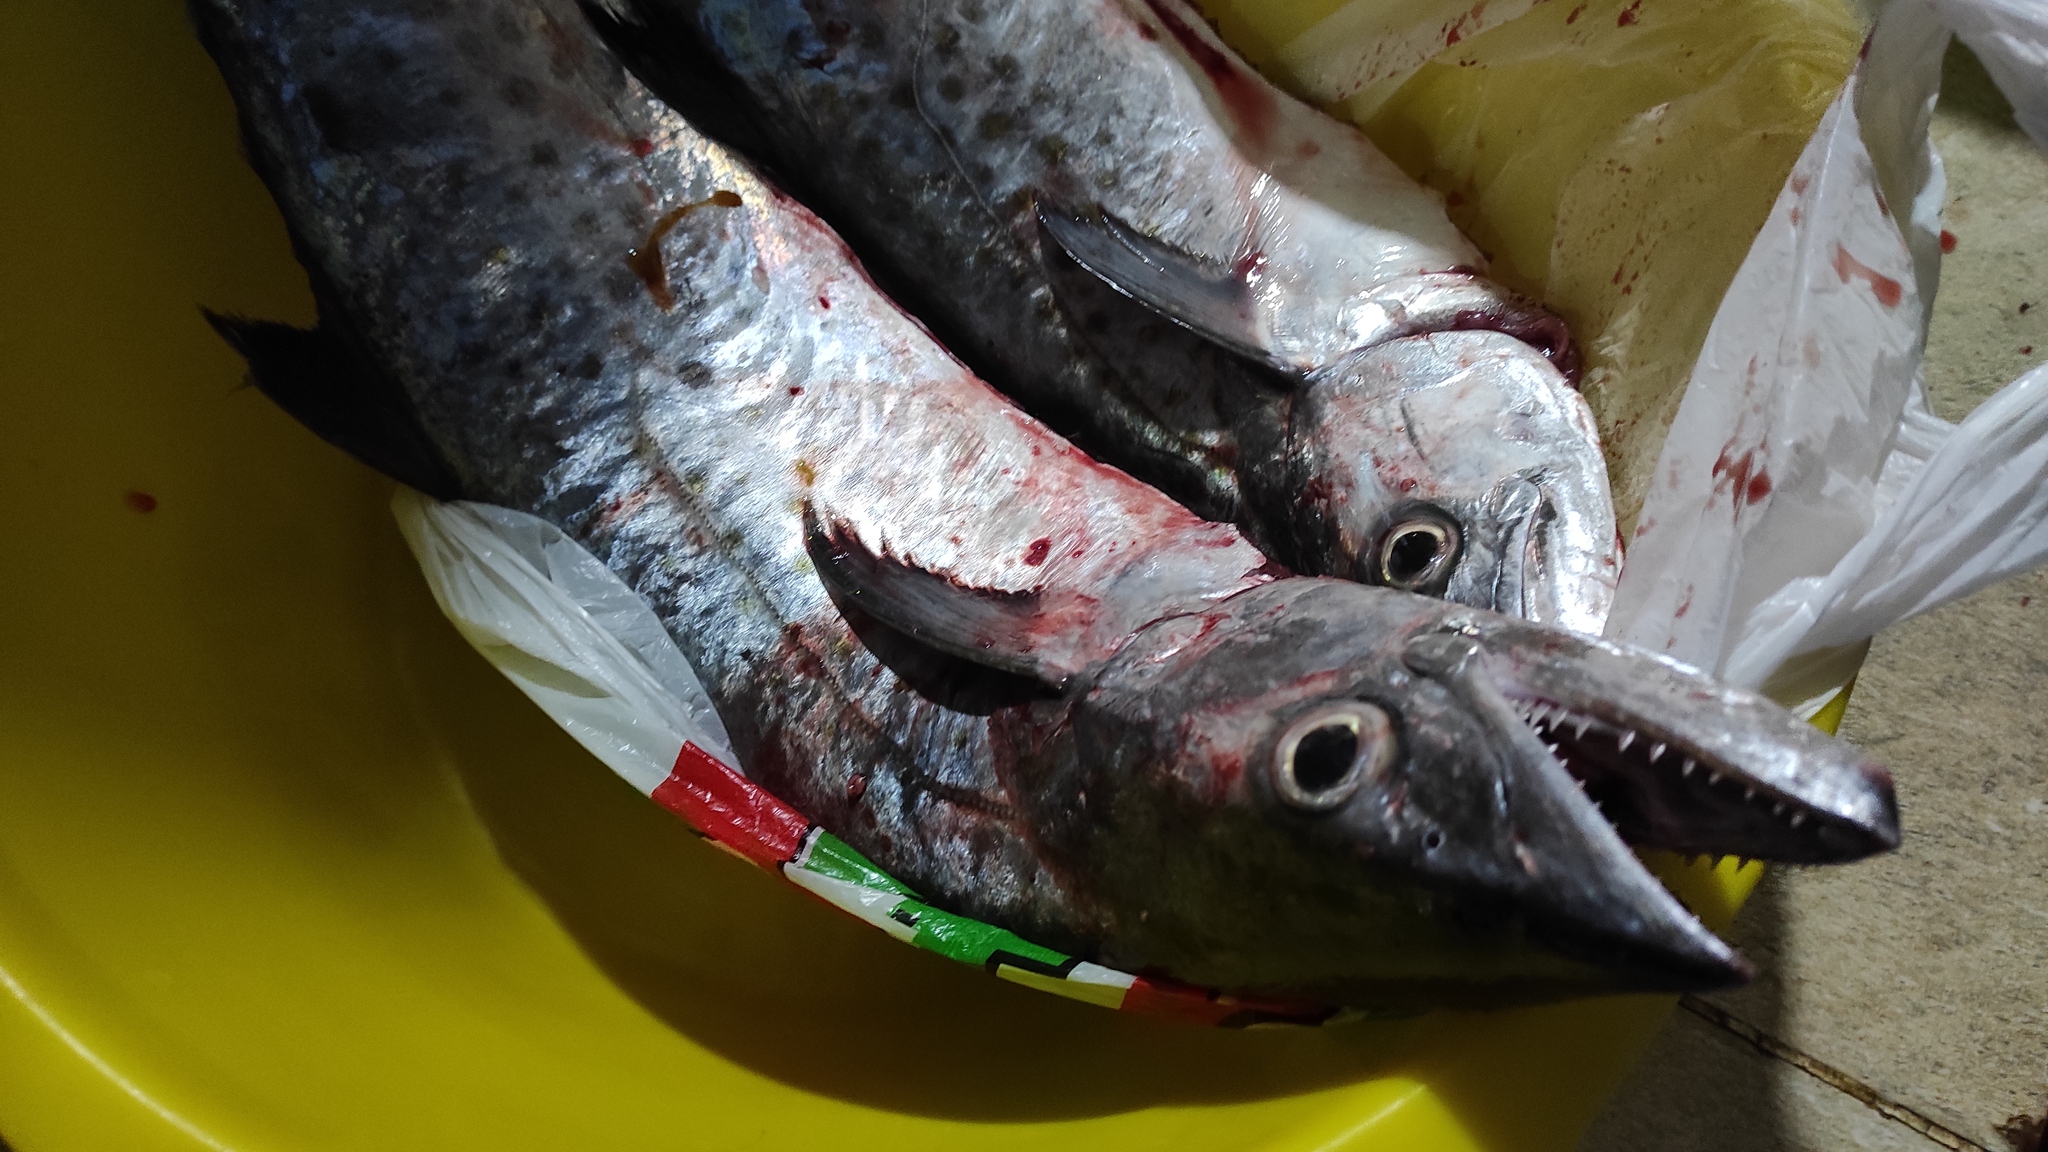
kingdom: Animalia
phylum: Chordata
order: Perciformes
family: Scombridae
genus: Scomberomorus
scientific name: Scomberomorus maculatus
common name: Spanish mackerel
